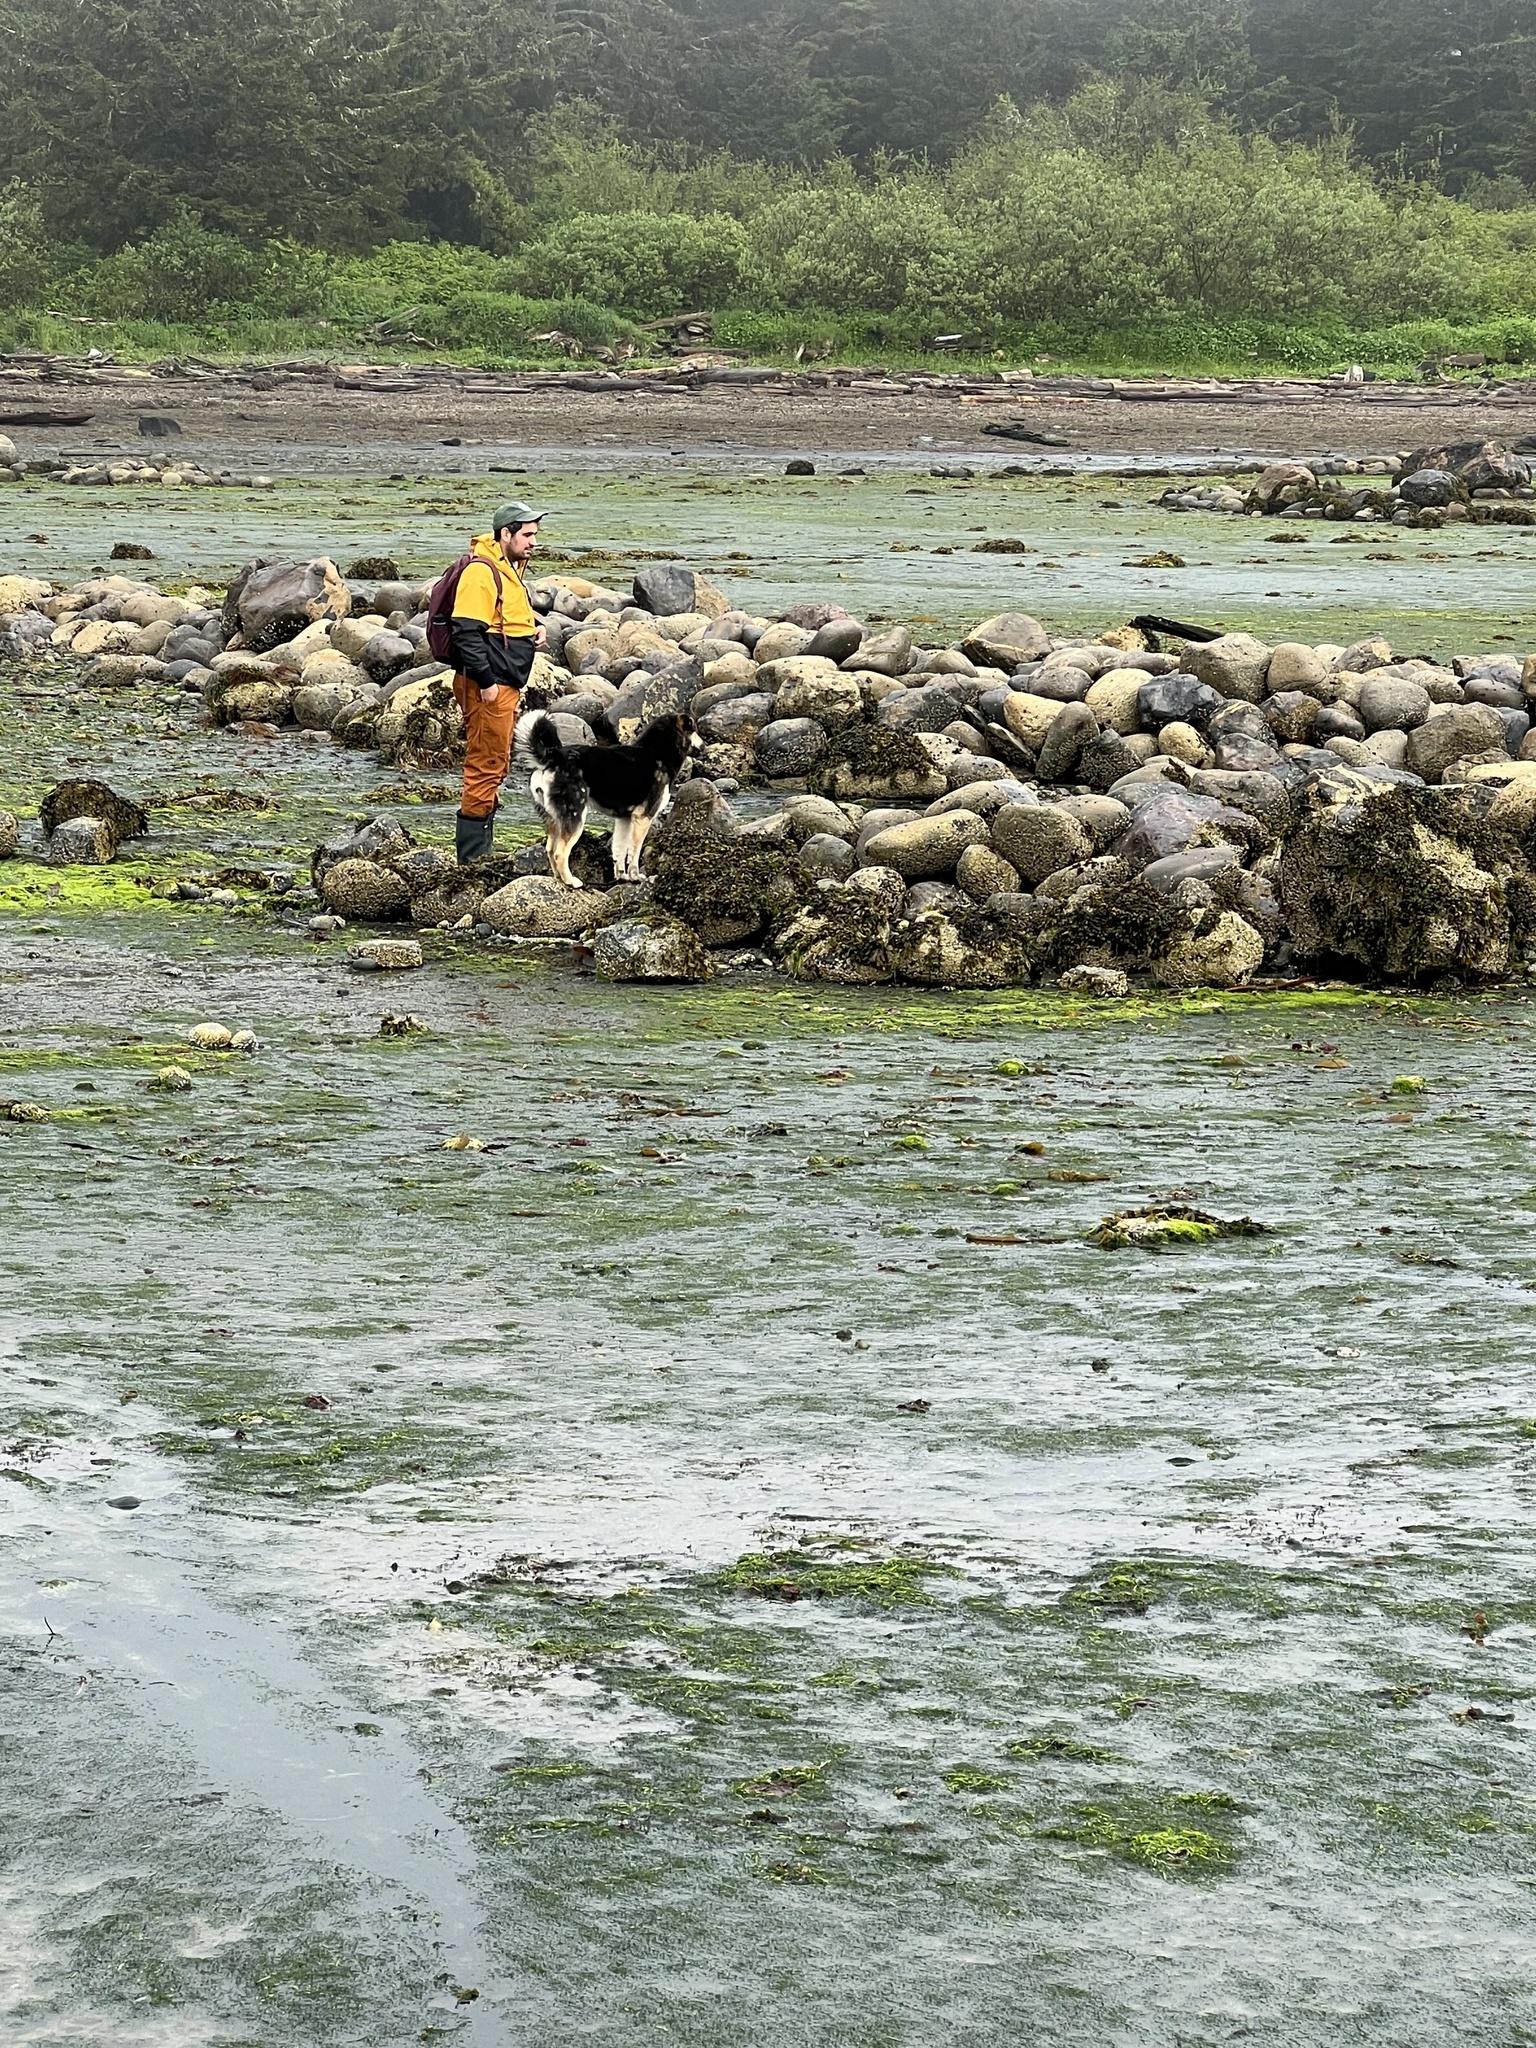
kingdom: Animalia
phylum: Chordata
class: Mammalia
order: Carnivora
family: Mustelidae
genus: Mustela
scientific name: Mustela
